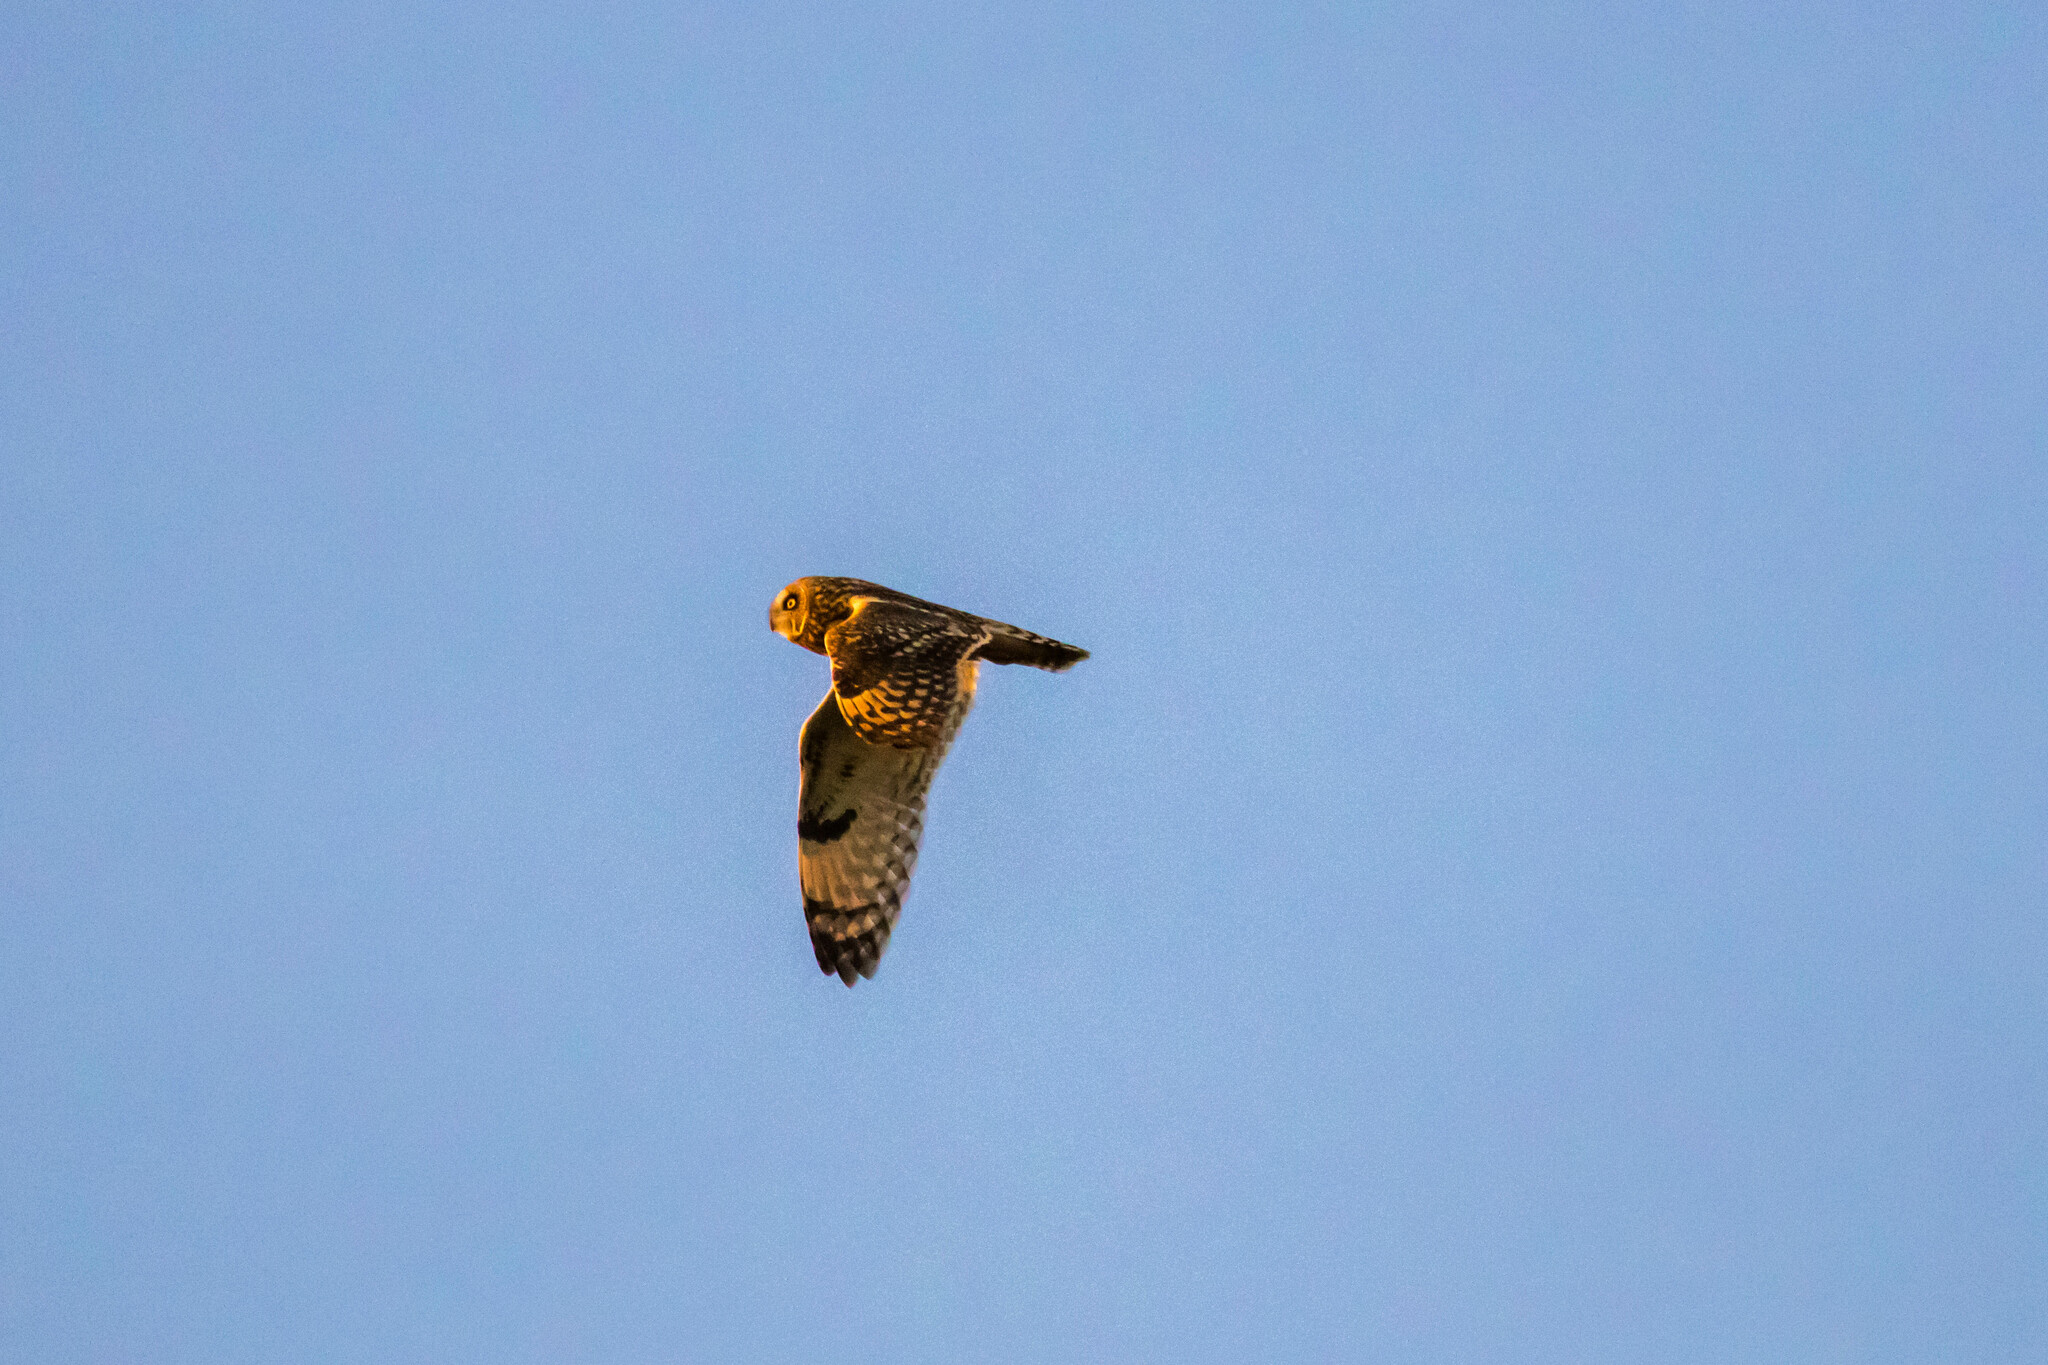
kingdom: Animalia
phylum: Chordata
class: Aves
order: Strigiformes
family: Strigidae
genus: Asio
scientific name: Asio flammeus
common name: Short-eared owl
